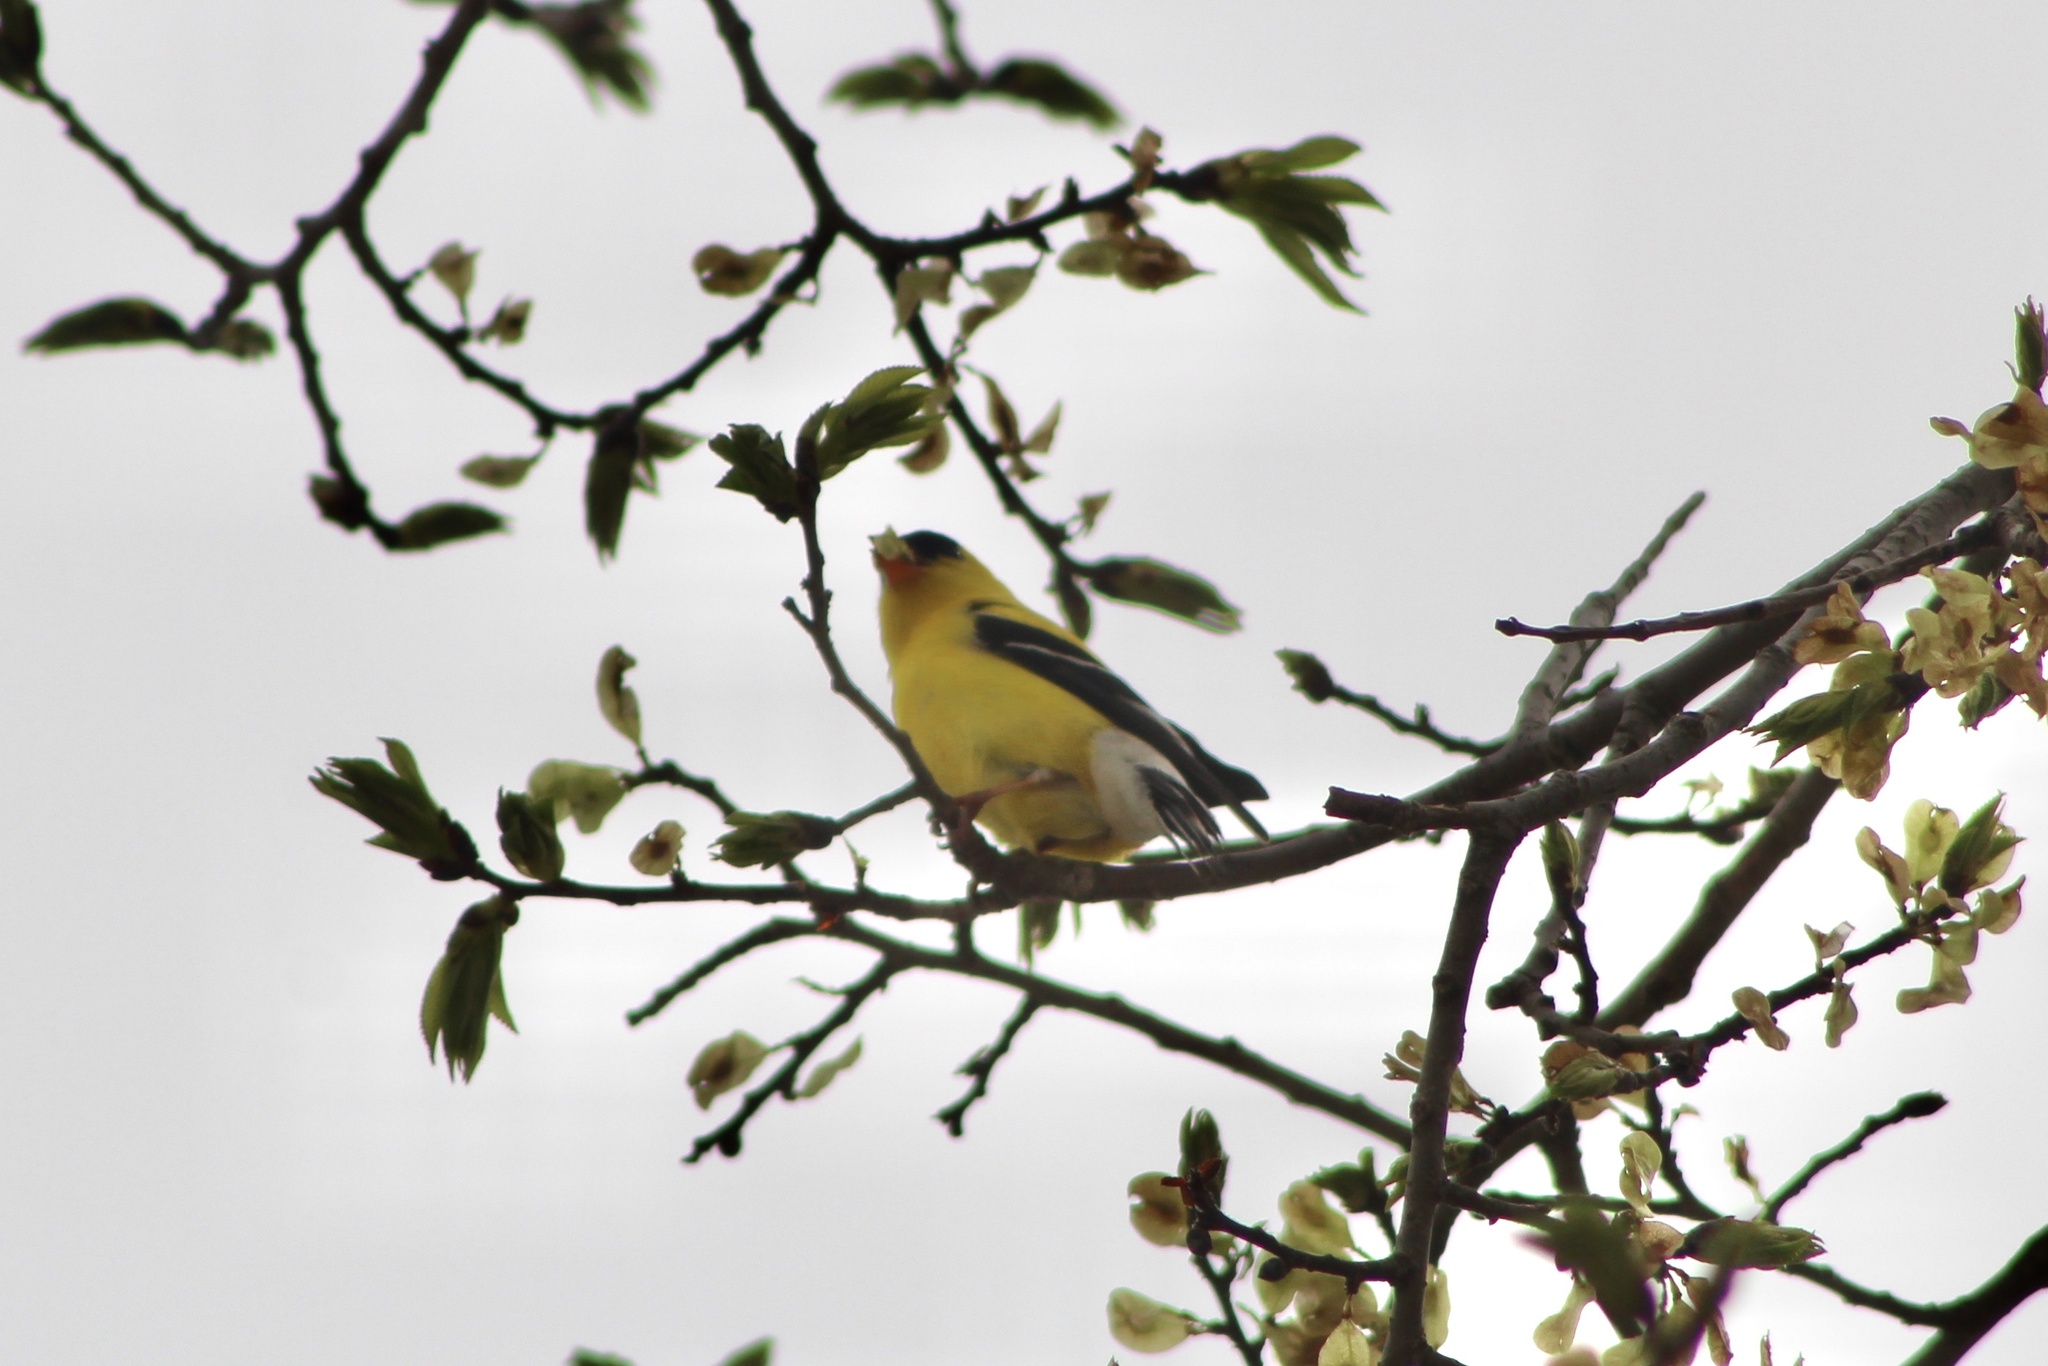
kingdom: Animalia
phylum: Chordata
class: Aves
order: Passeriformes
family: Fringillidae
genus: Spinus
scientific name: Spinus tristis
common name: American goldfinch
